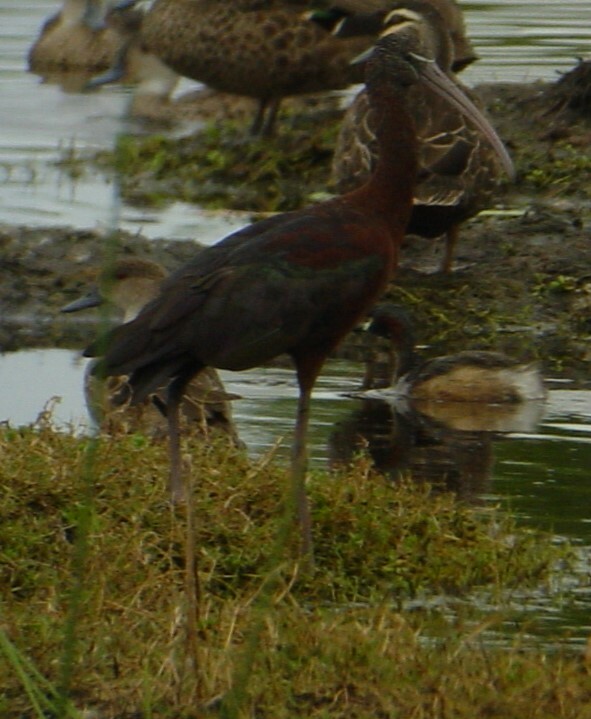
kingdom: Animalia
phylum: Chordata
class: Aves
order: Pelecaniformes
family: Threskiornithidae
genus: Plegadis
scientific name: Plegadis falcinellus
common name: Glossy ibis
